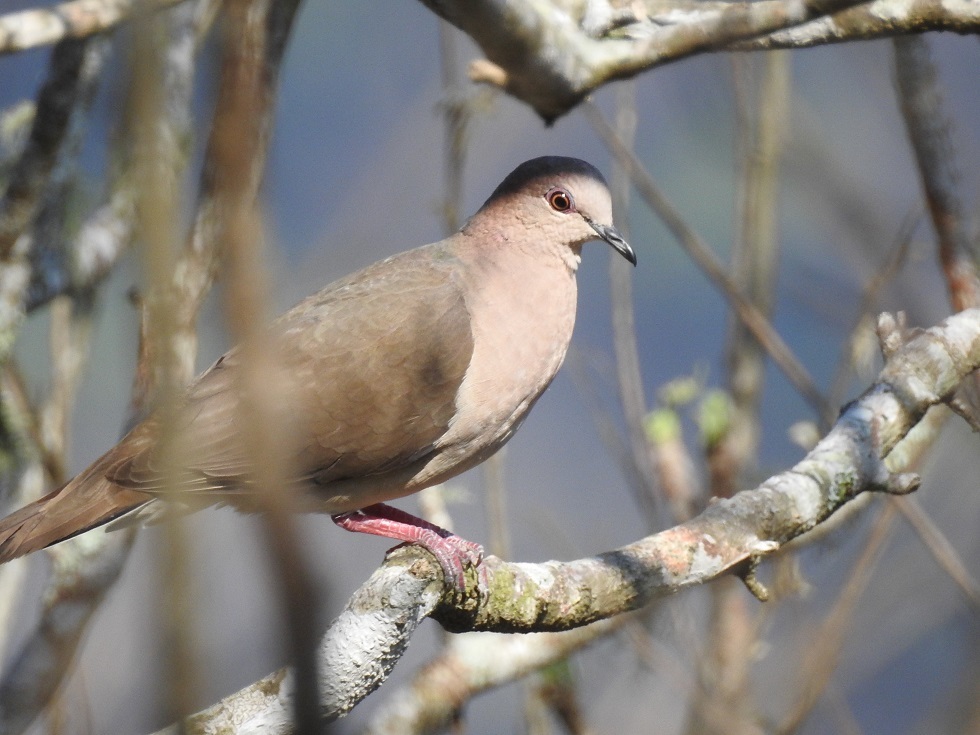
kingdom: Animalia
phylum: Chordata
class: Aves
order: Columbiformes
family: Columbidae
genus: Leptotila
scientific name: Leptotila verreauxi
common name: White-tipped dove
